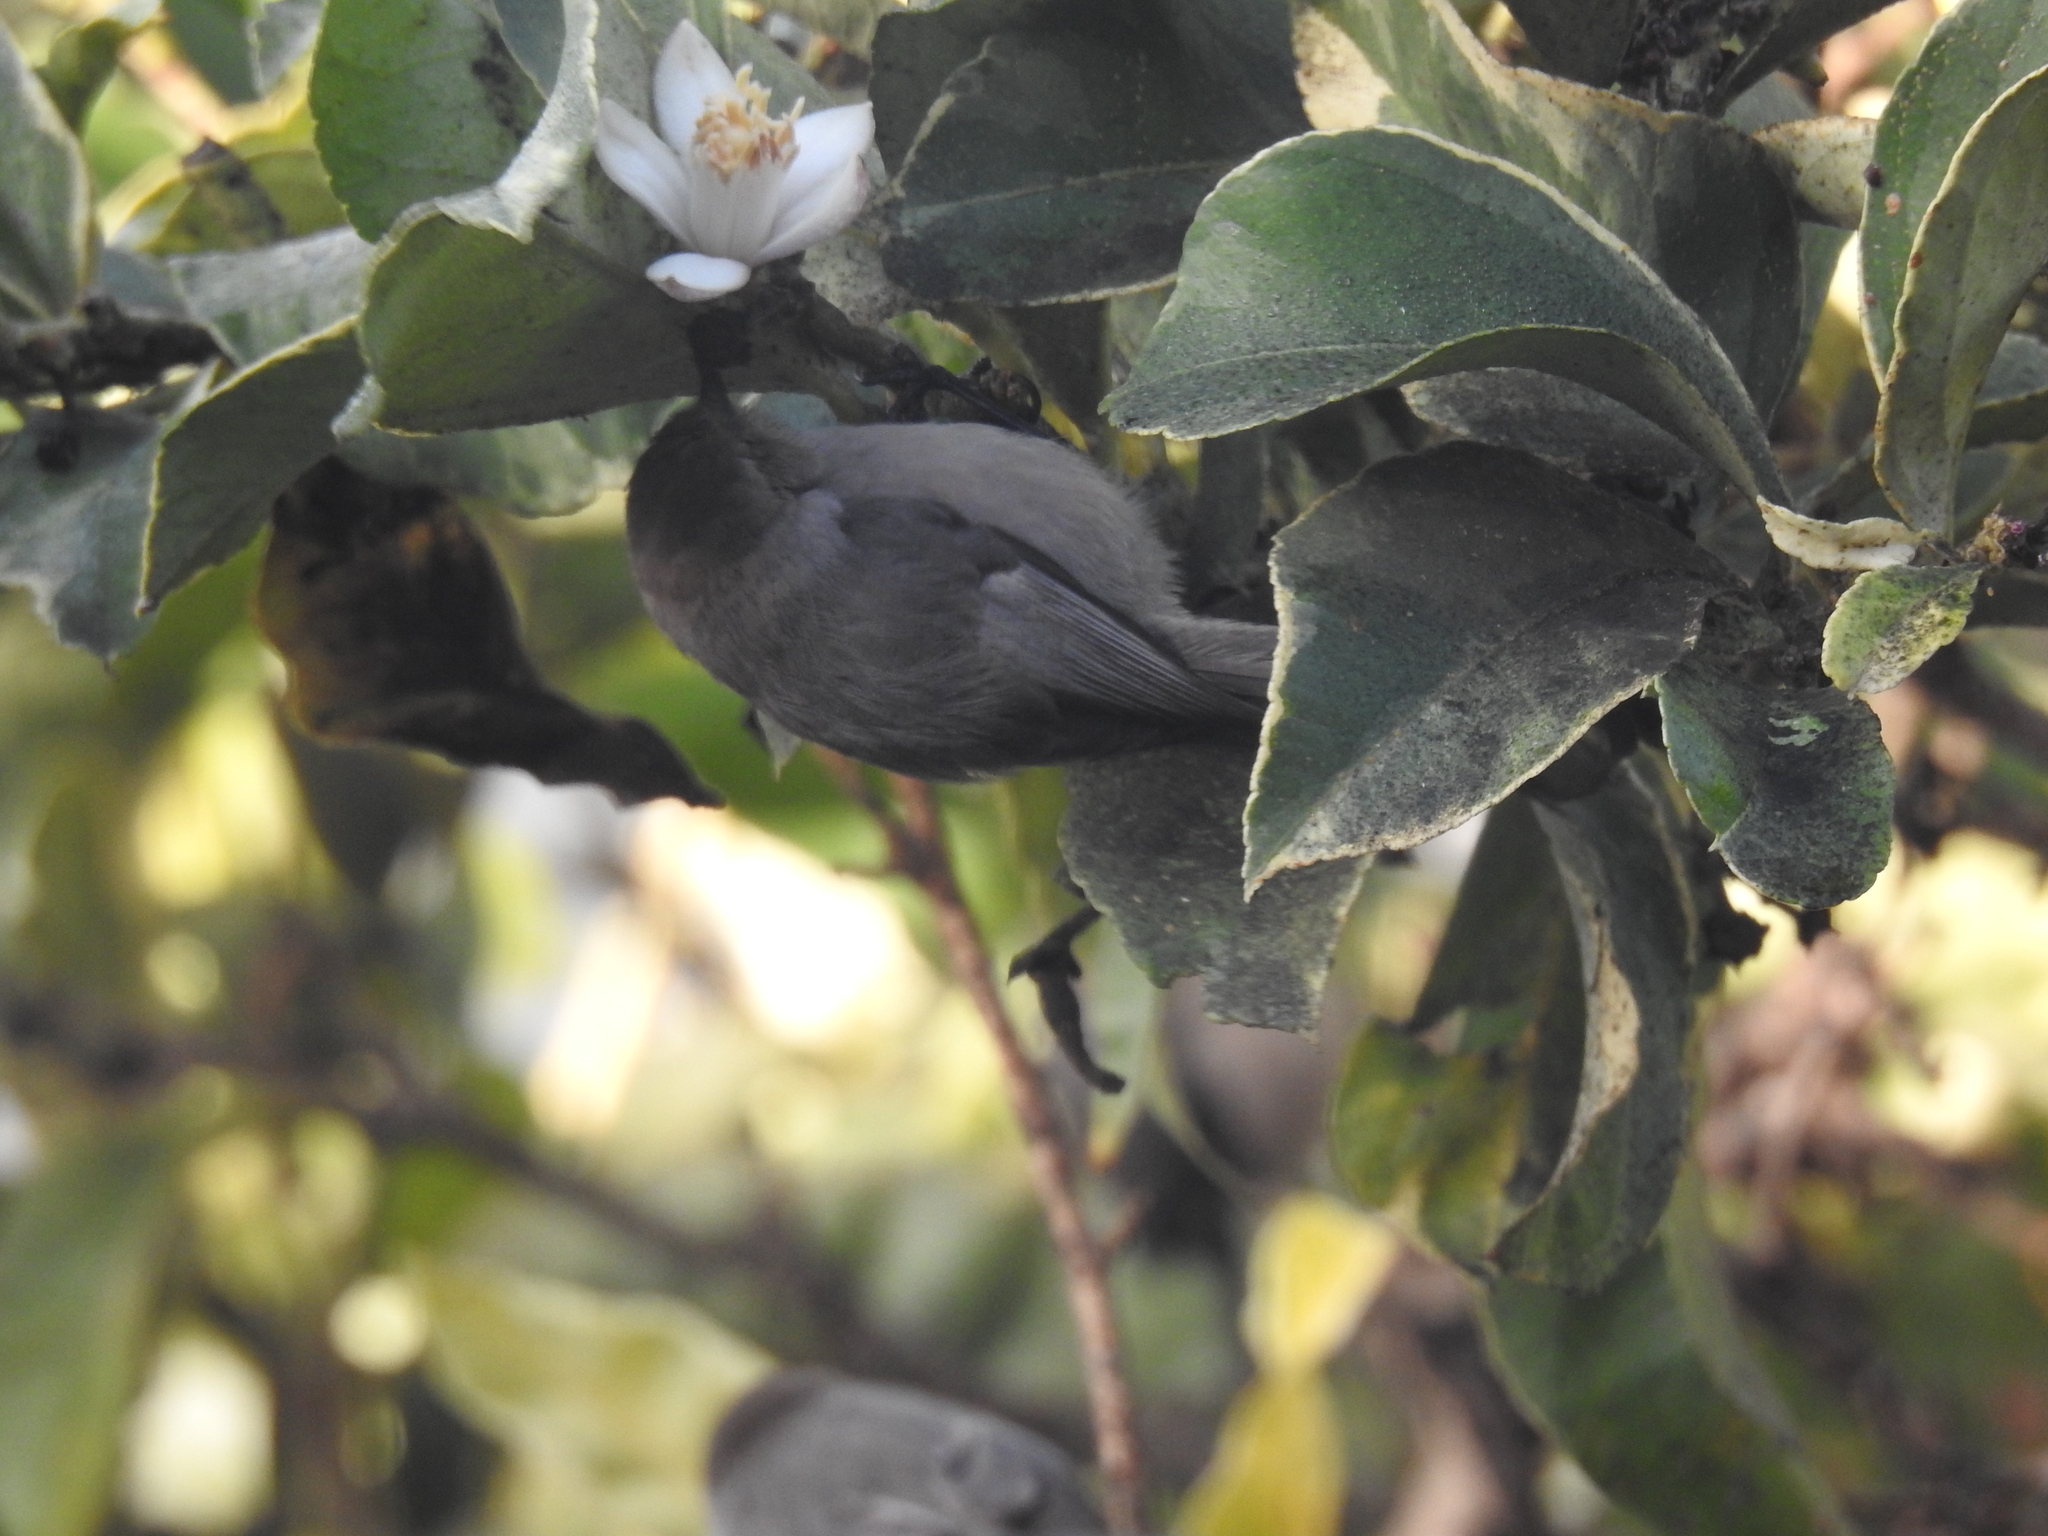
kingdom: Animalia
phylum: Chordata
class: Aves
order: Passeriformes
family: Aegithalidae
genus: Psaltriparus
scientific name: Psaltriparus minimus
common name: American bushtit
